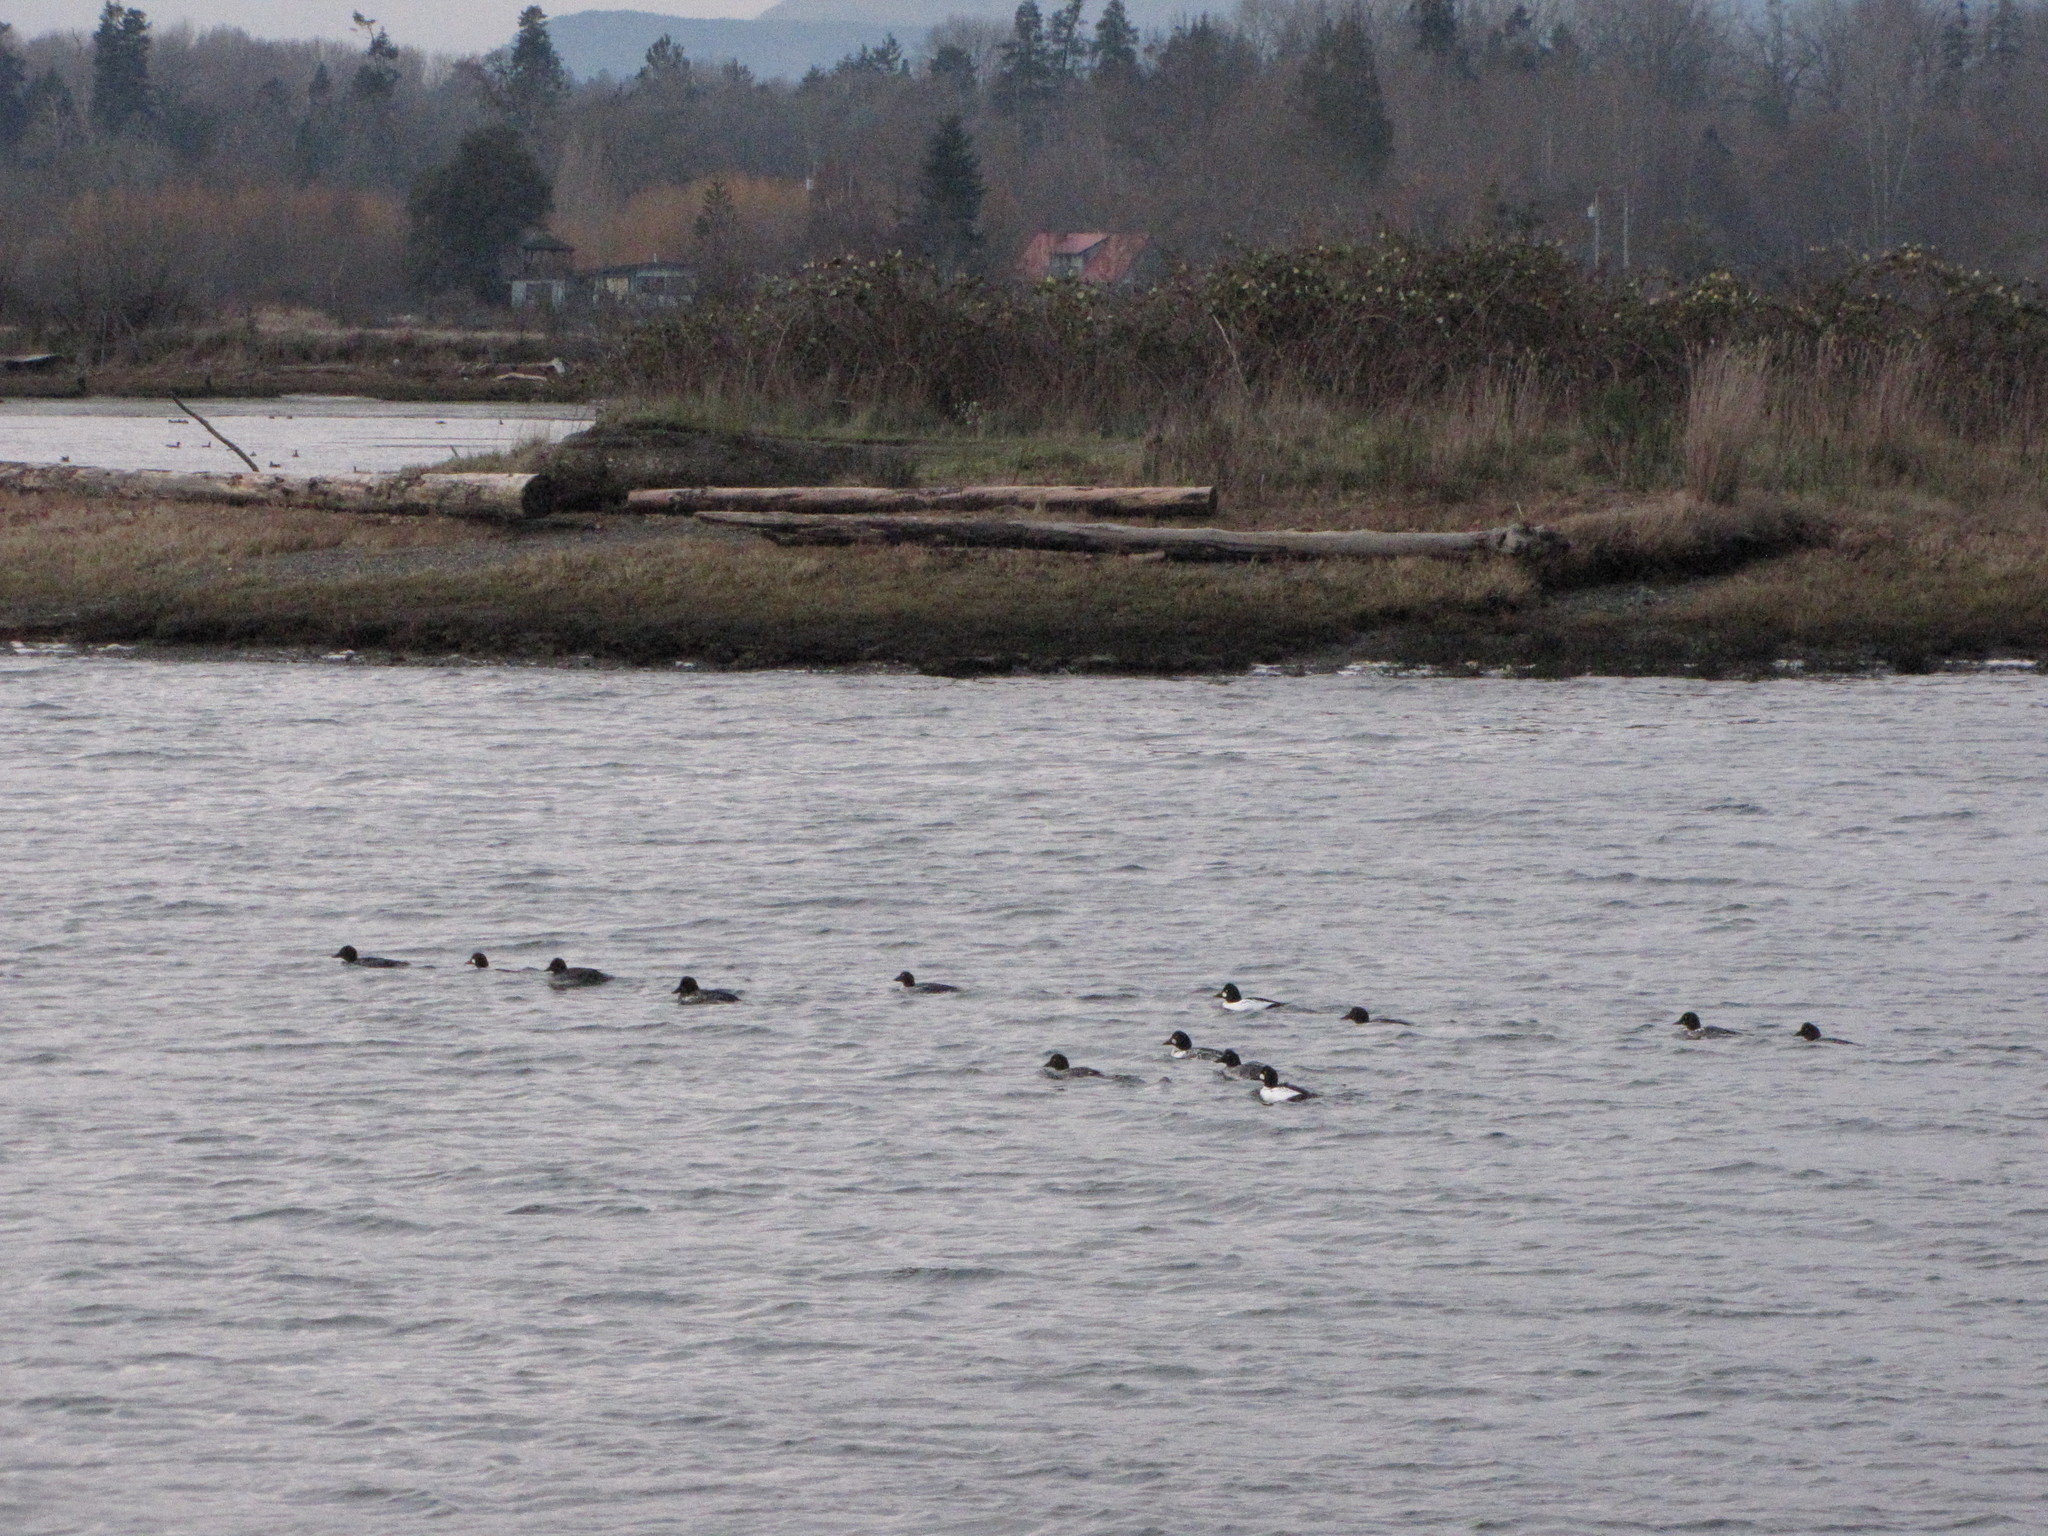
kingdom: Animalia
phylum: Chordata
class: Aves
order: Anseriformes
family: Anatidae
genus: Bucephala
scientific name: Bucephala clangula
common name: Common goldeneye
